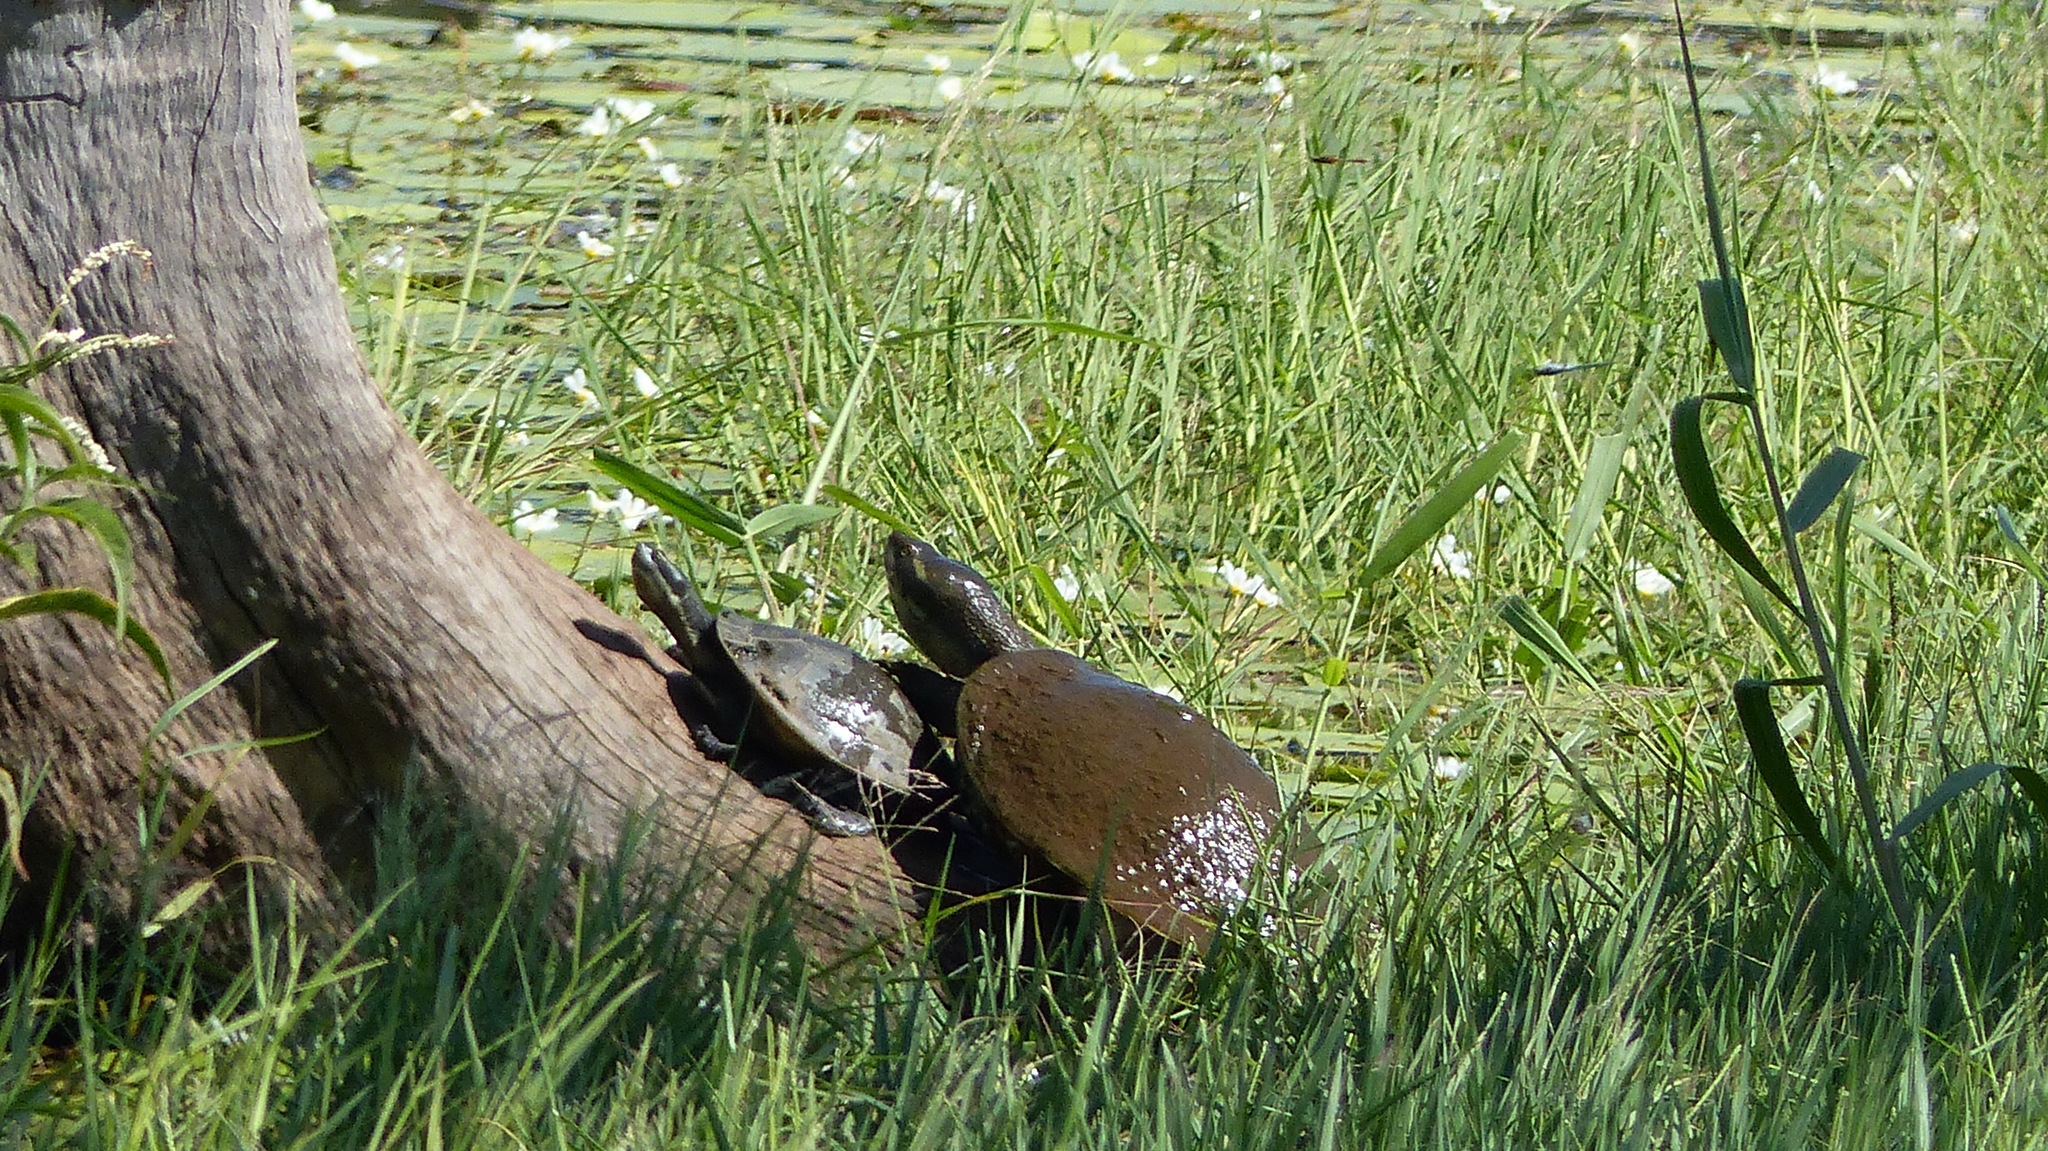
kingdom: Animalia
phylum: Chordata
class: Testudines
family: Chelidae
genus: Emydura
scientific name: Emydura macquarii
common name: Murray river turtle
